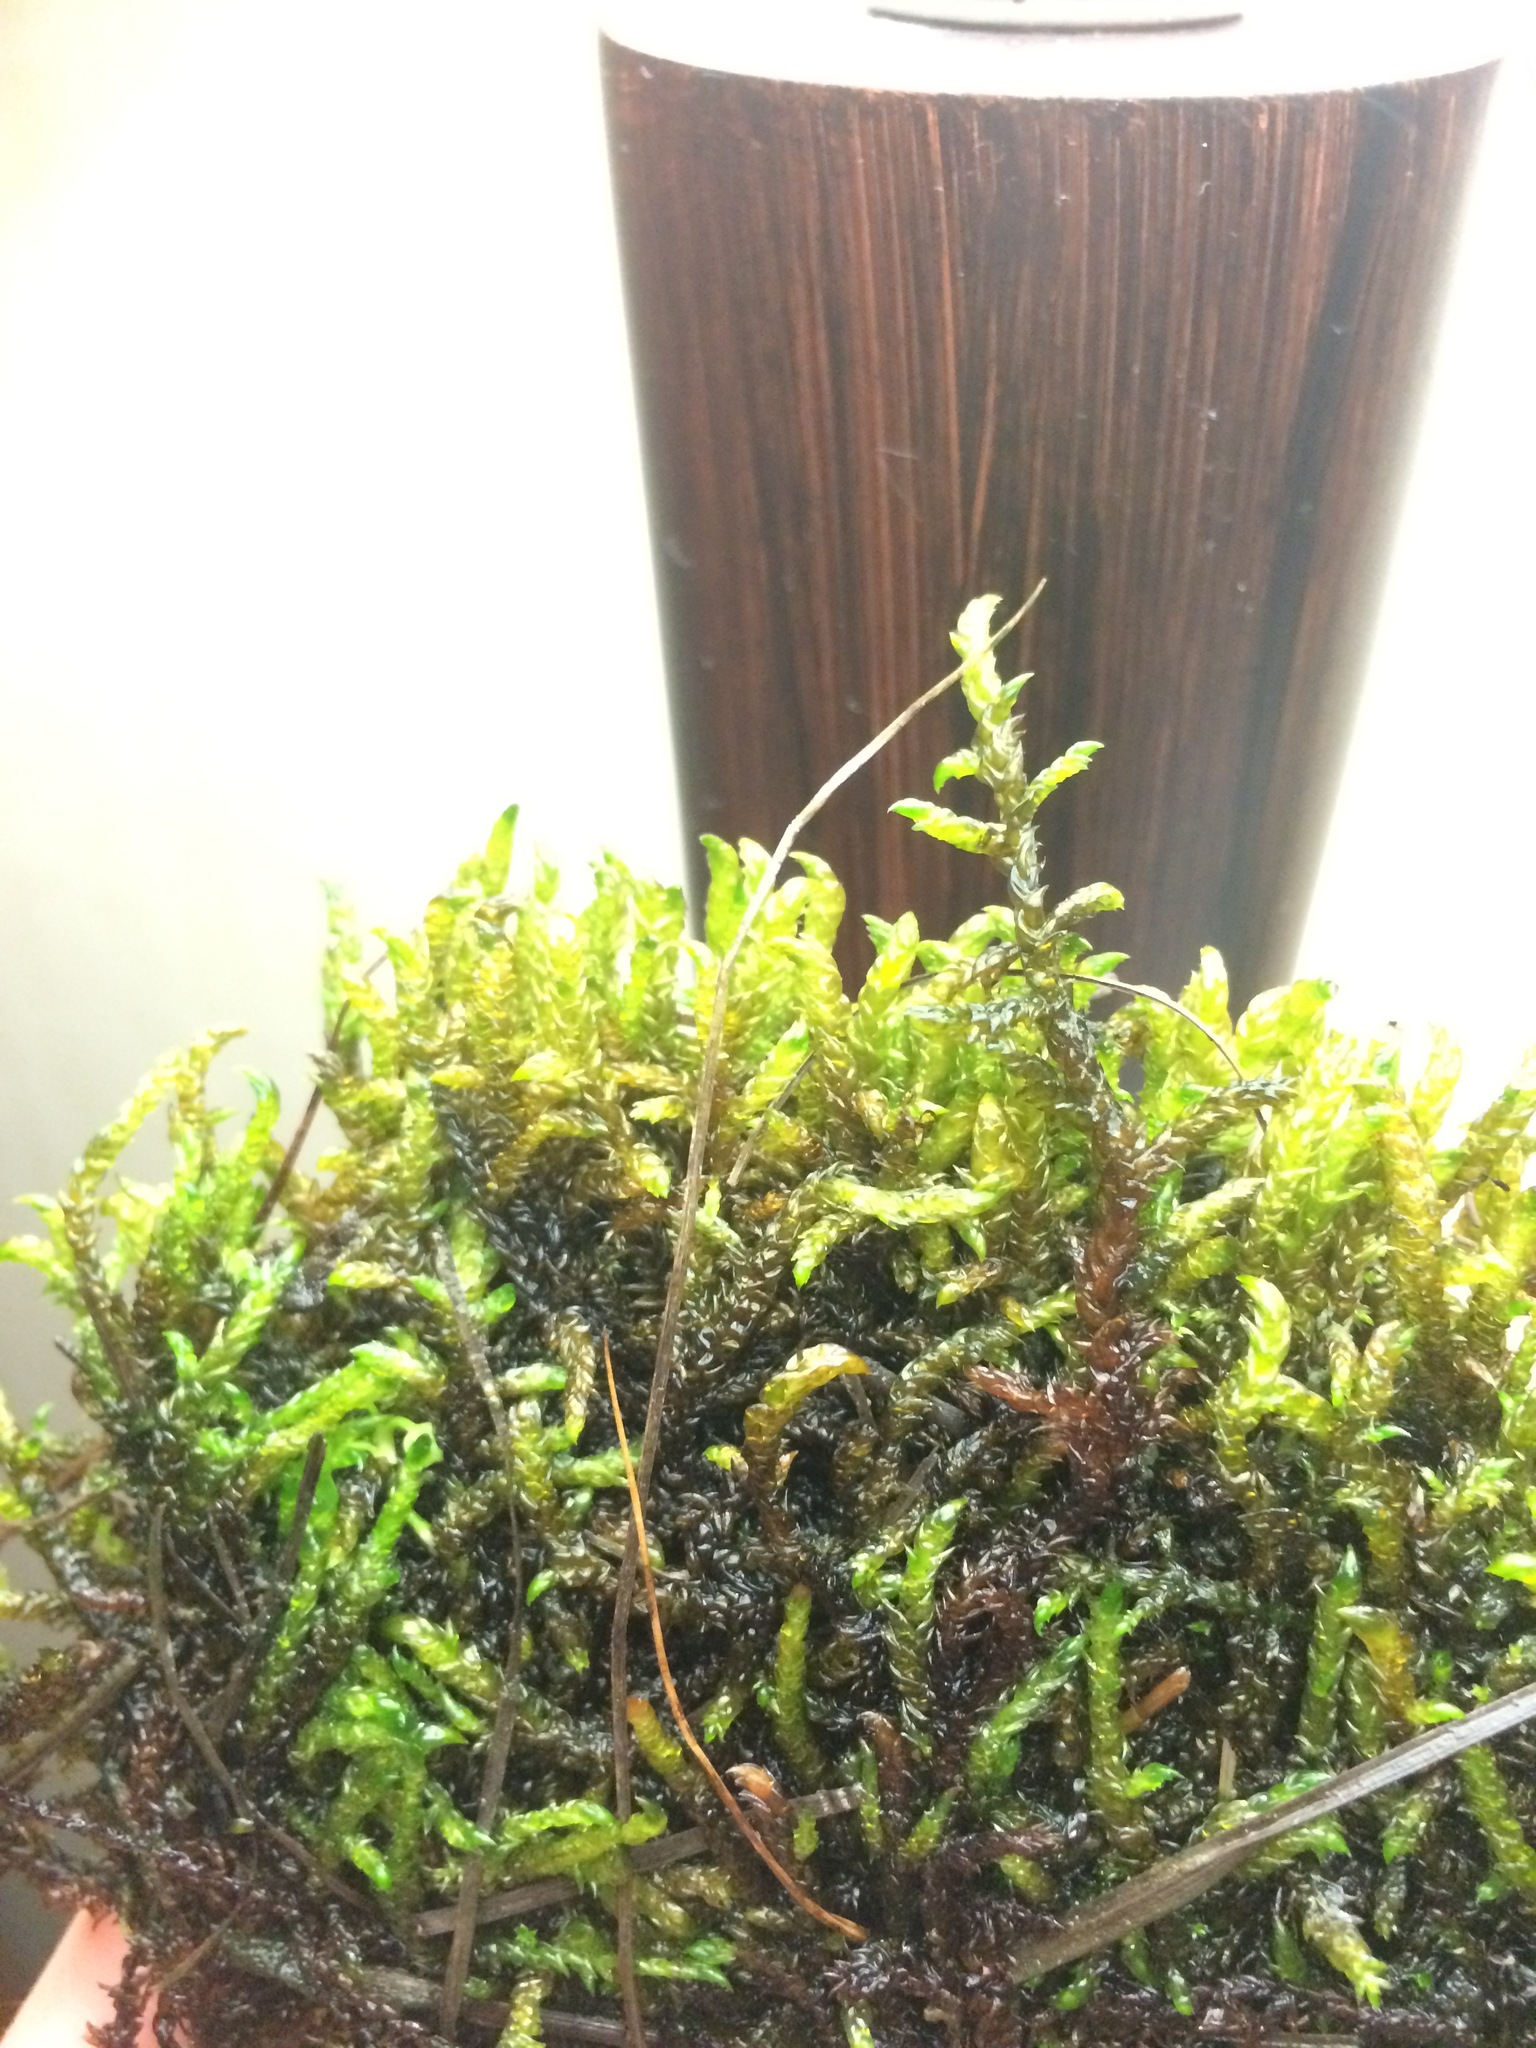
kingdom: Plantae
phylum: Bryophyta
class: Bryopsida
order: Hypnales
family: Scorpidiaceae
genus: Scorpidium
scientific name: Scorpidium scorpioides
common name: Hooked scorpion moss
